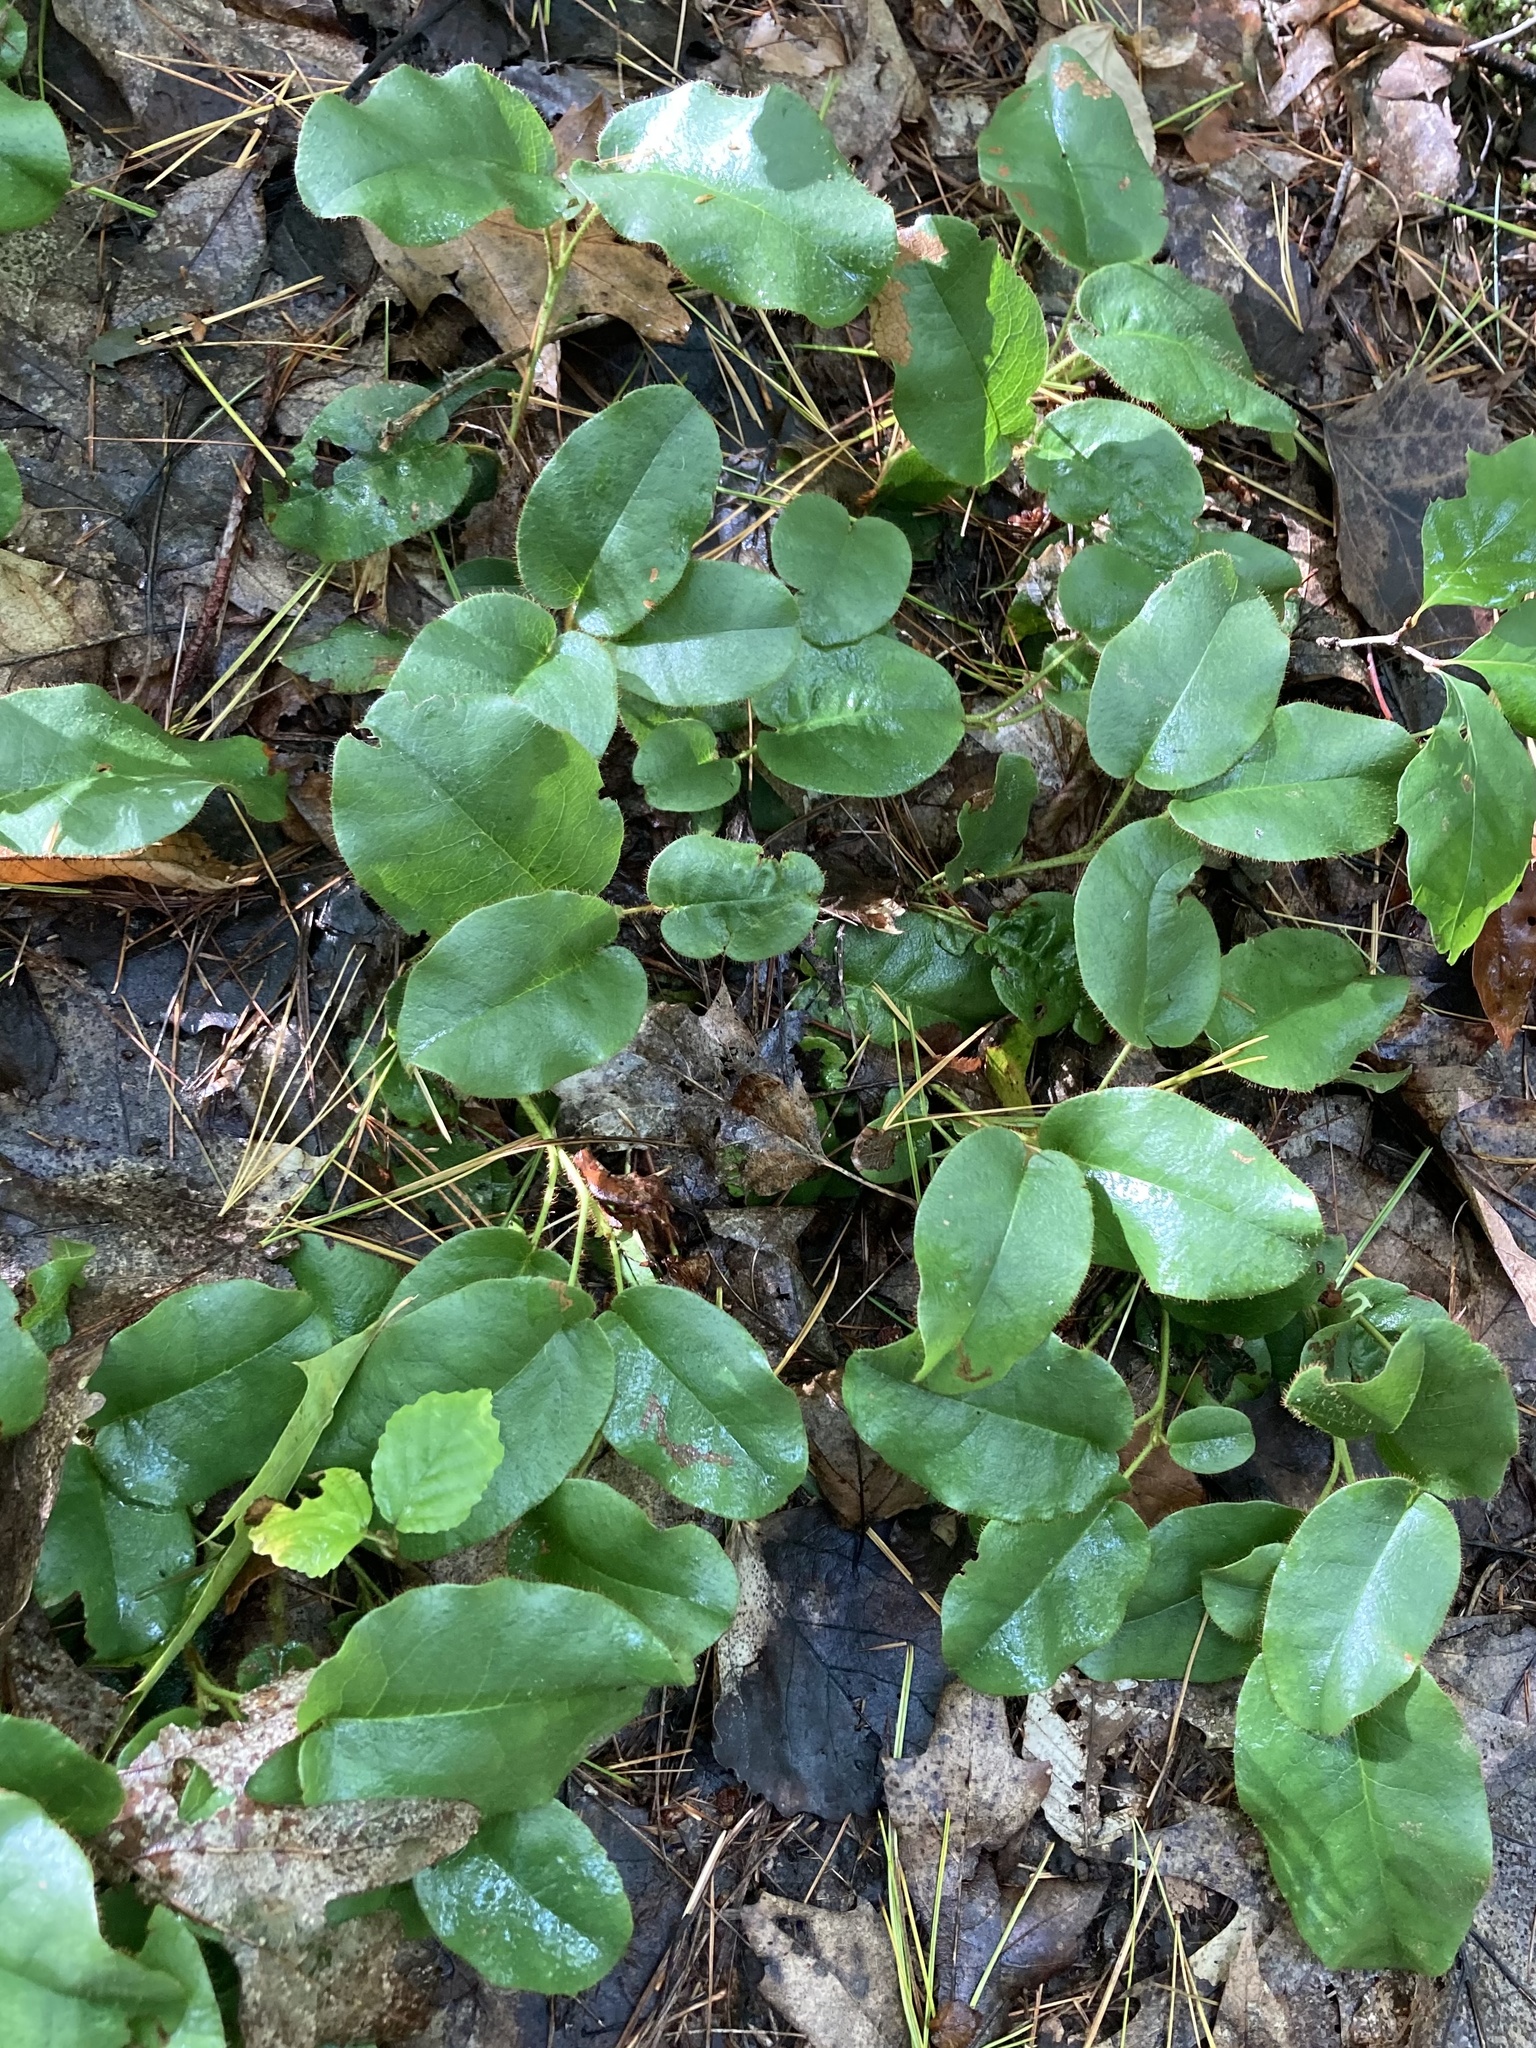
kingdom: Plantae
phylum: Tracheophyta
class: Magnoliopsida
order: Ericales
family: Ericaceae
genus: Epigaea
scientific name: Epigaea repens
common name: Gravelroot
